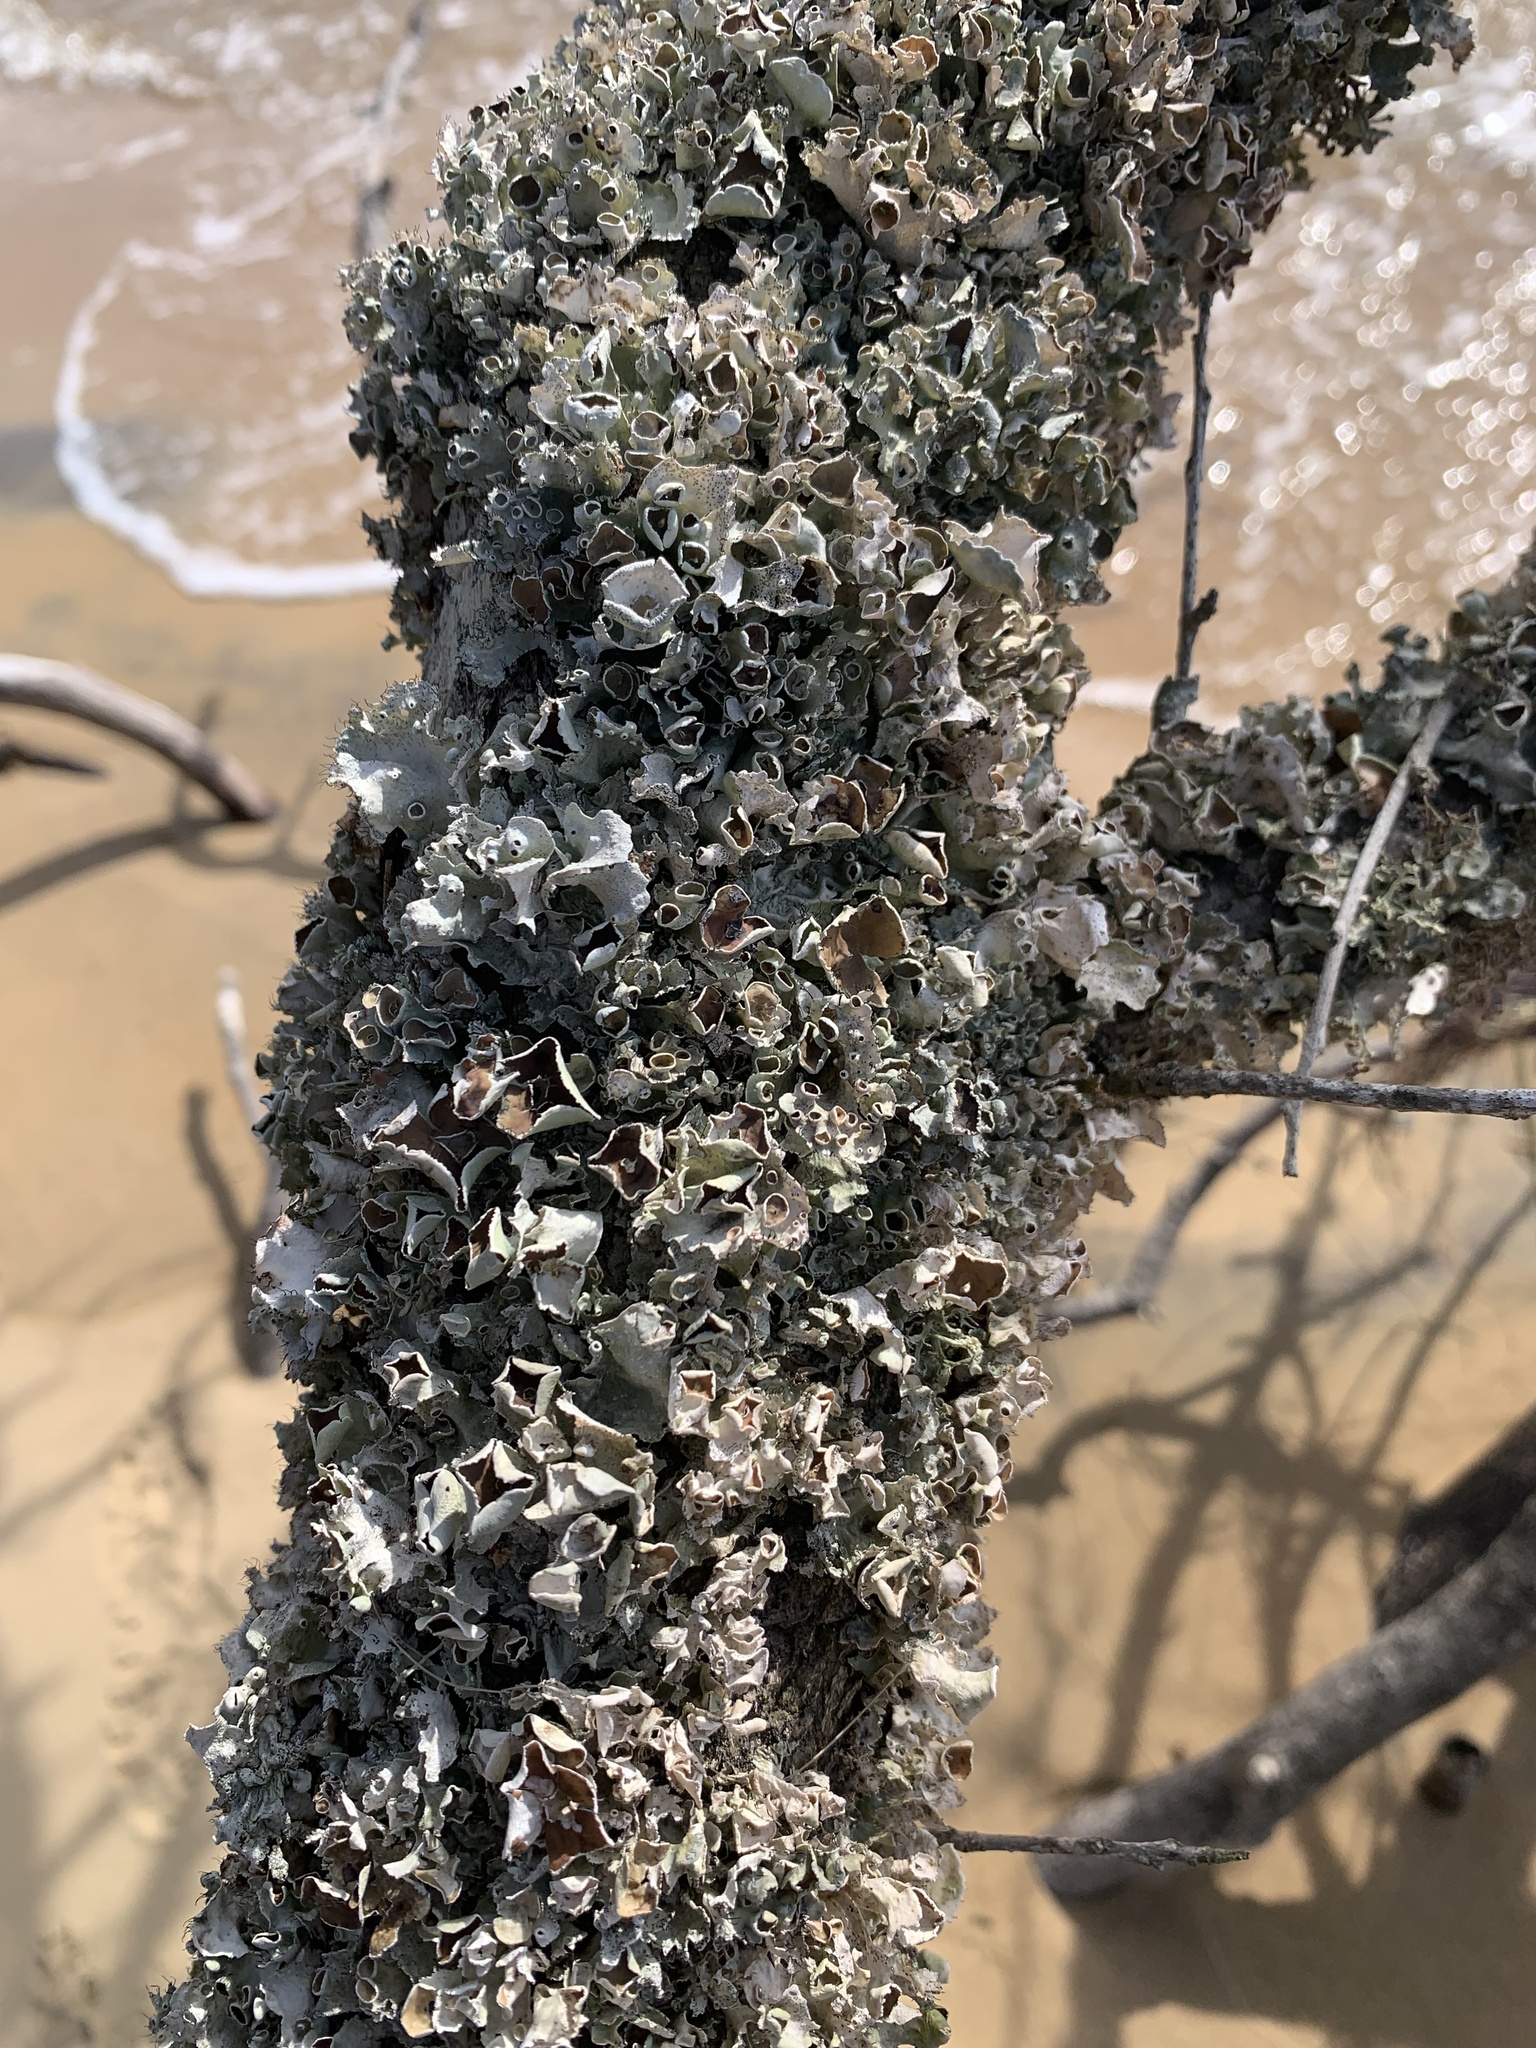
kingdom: Fungi
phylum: Ascomycota
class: Lecanoromycetes
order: Lecanorales
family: Parmeliaceae
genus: Parmotrema
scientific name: Parmotrema subrigidum
